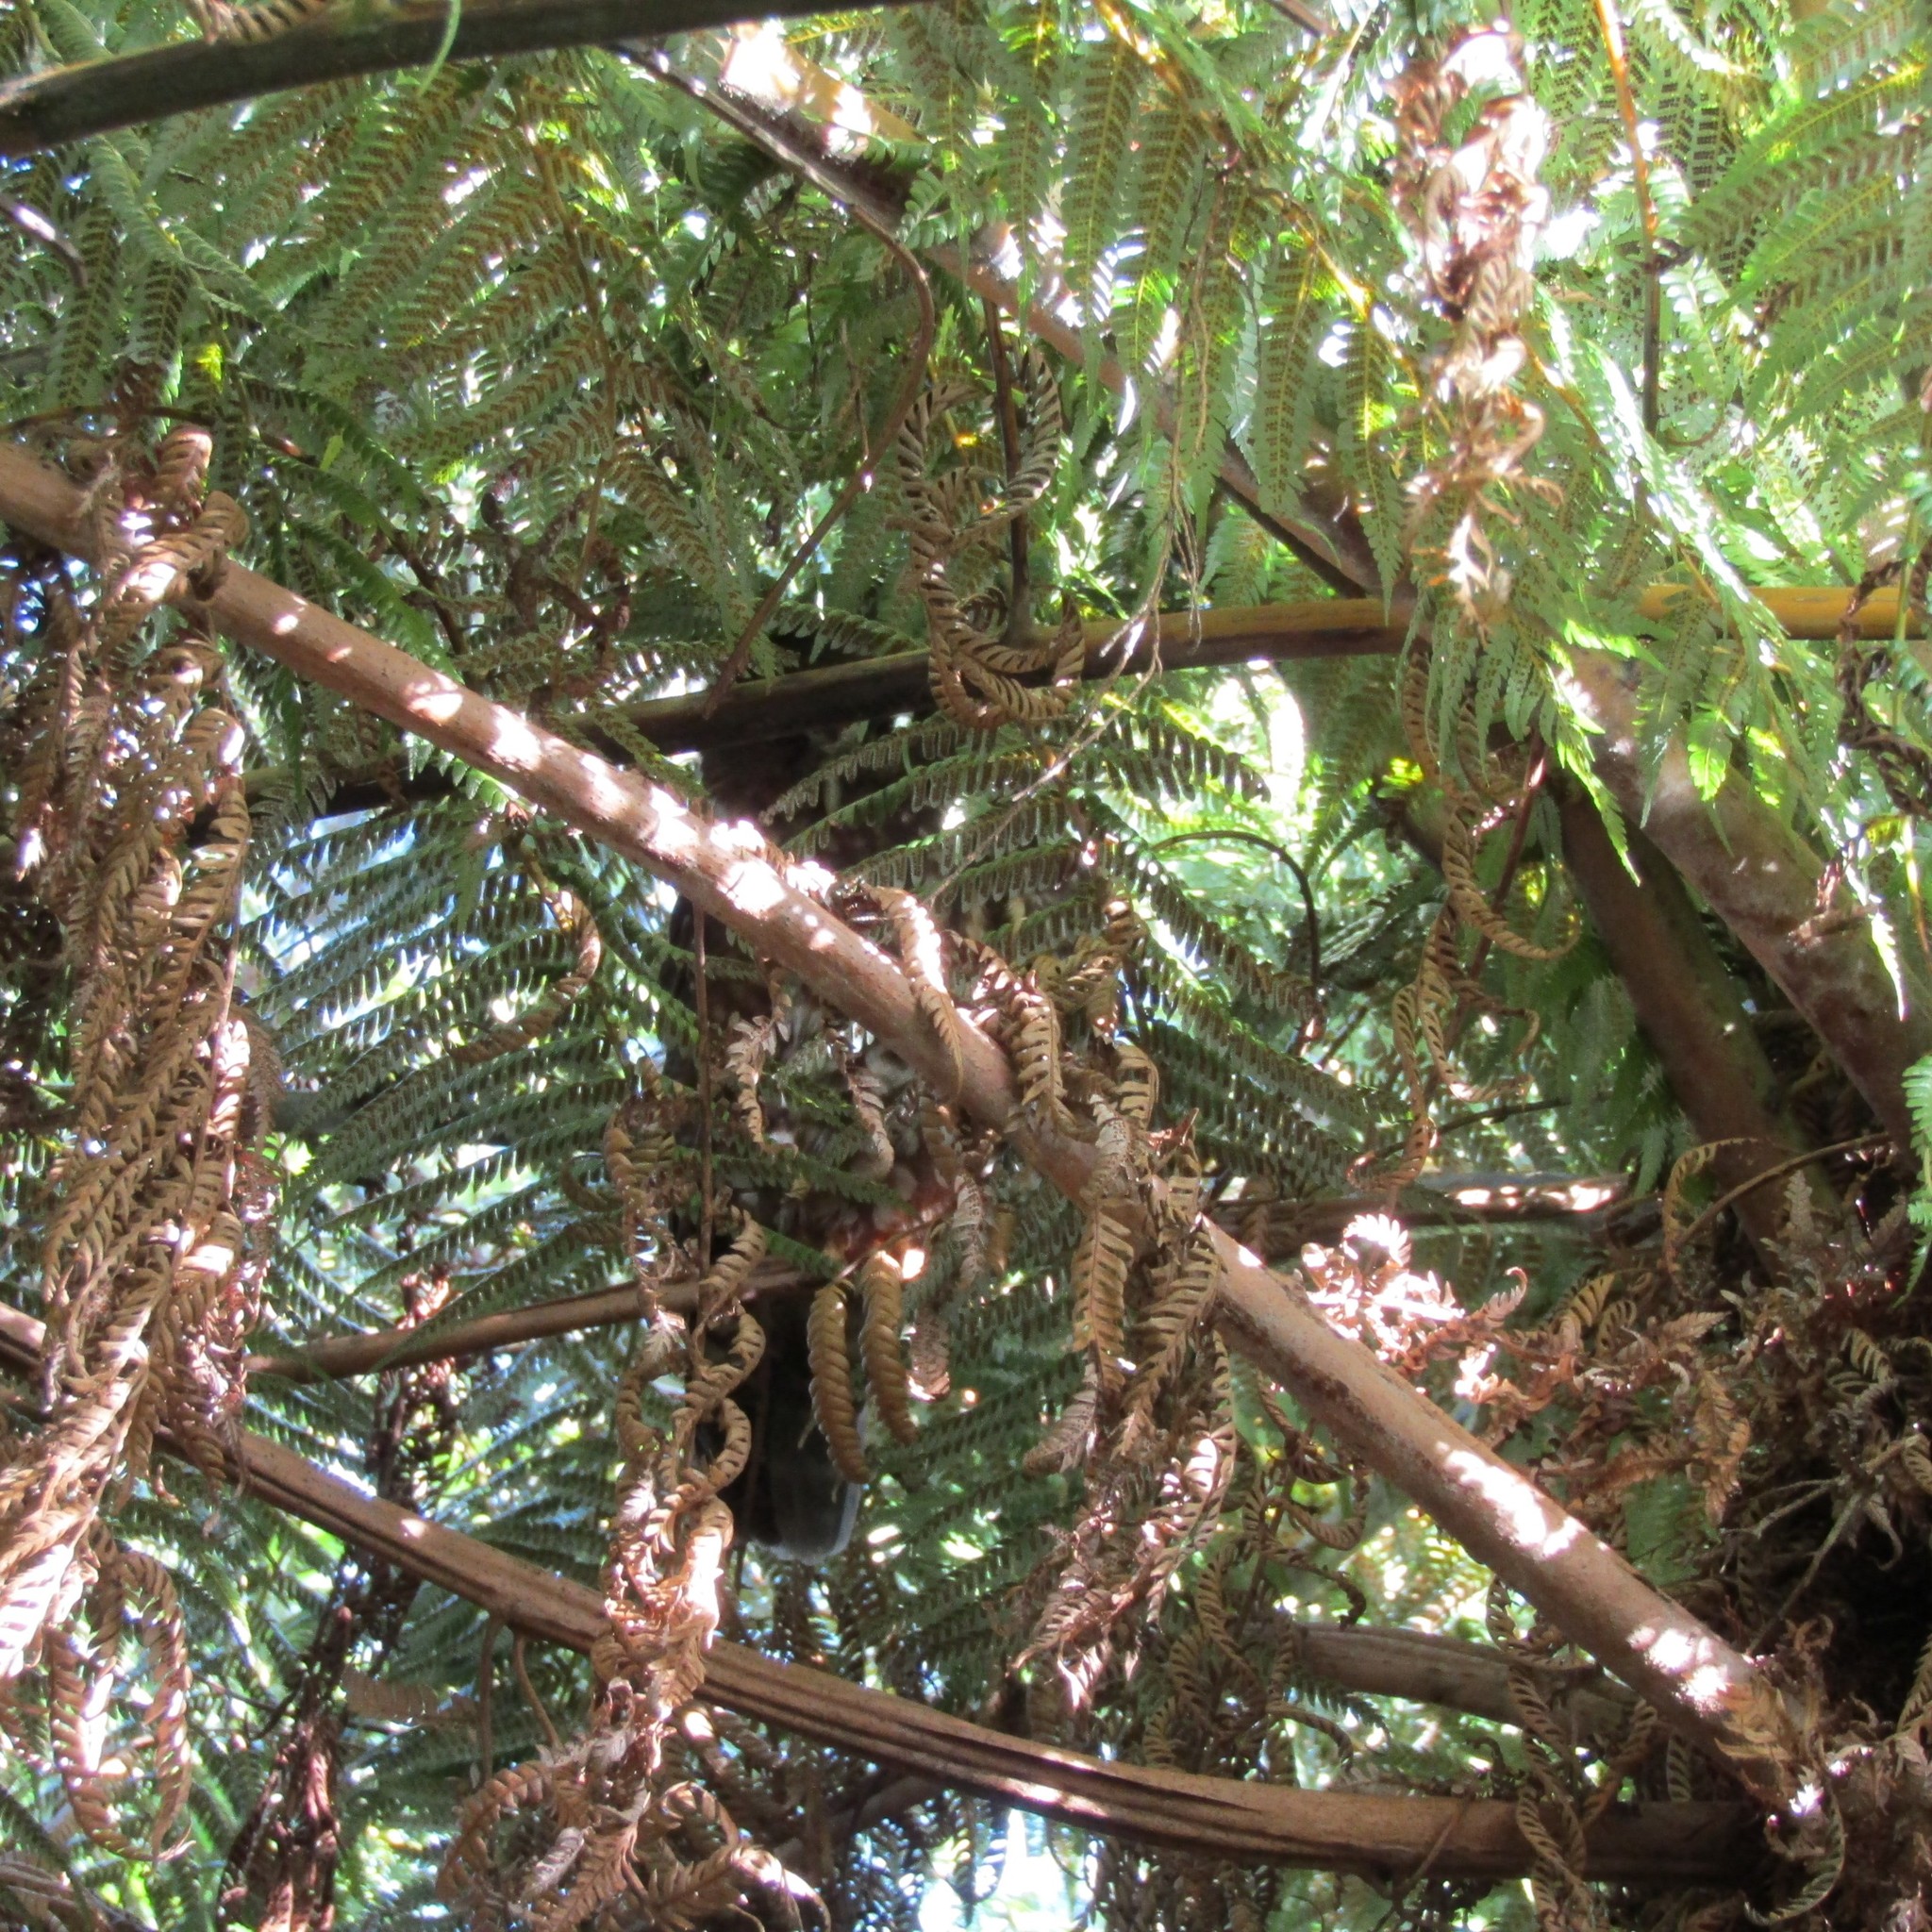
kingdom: Animalia
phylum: Chordata
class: Aves
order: Strigiformes
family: Strigidae
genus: Ninox
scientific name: Ninox novaeseelandiae
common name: Morepork
